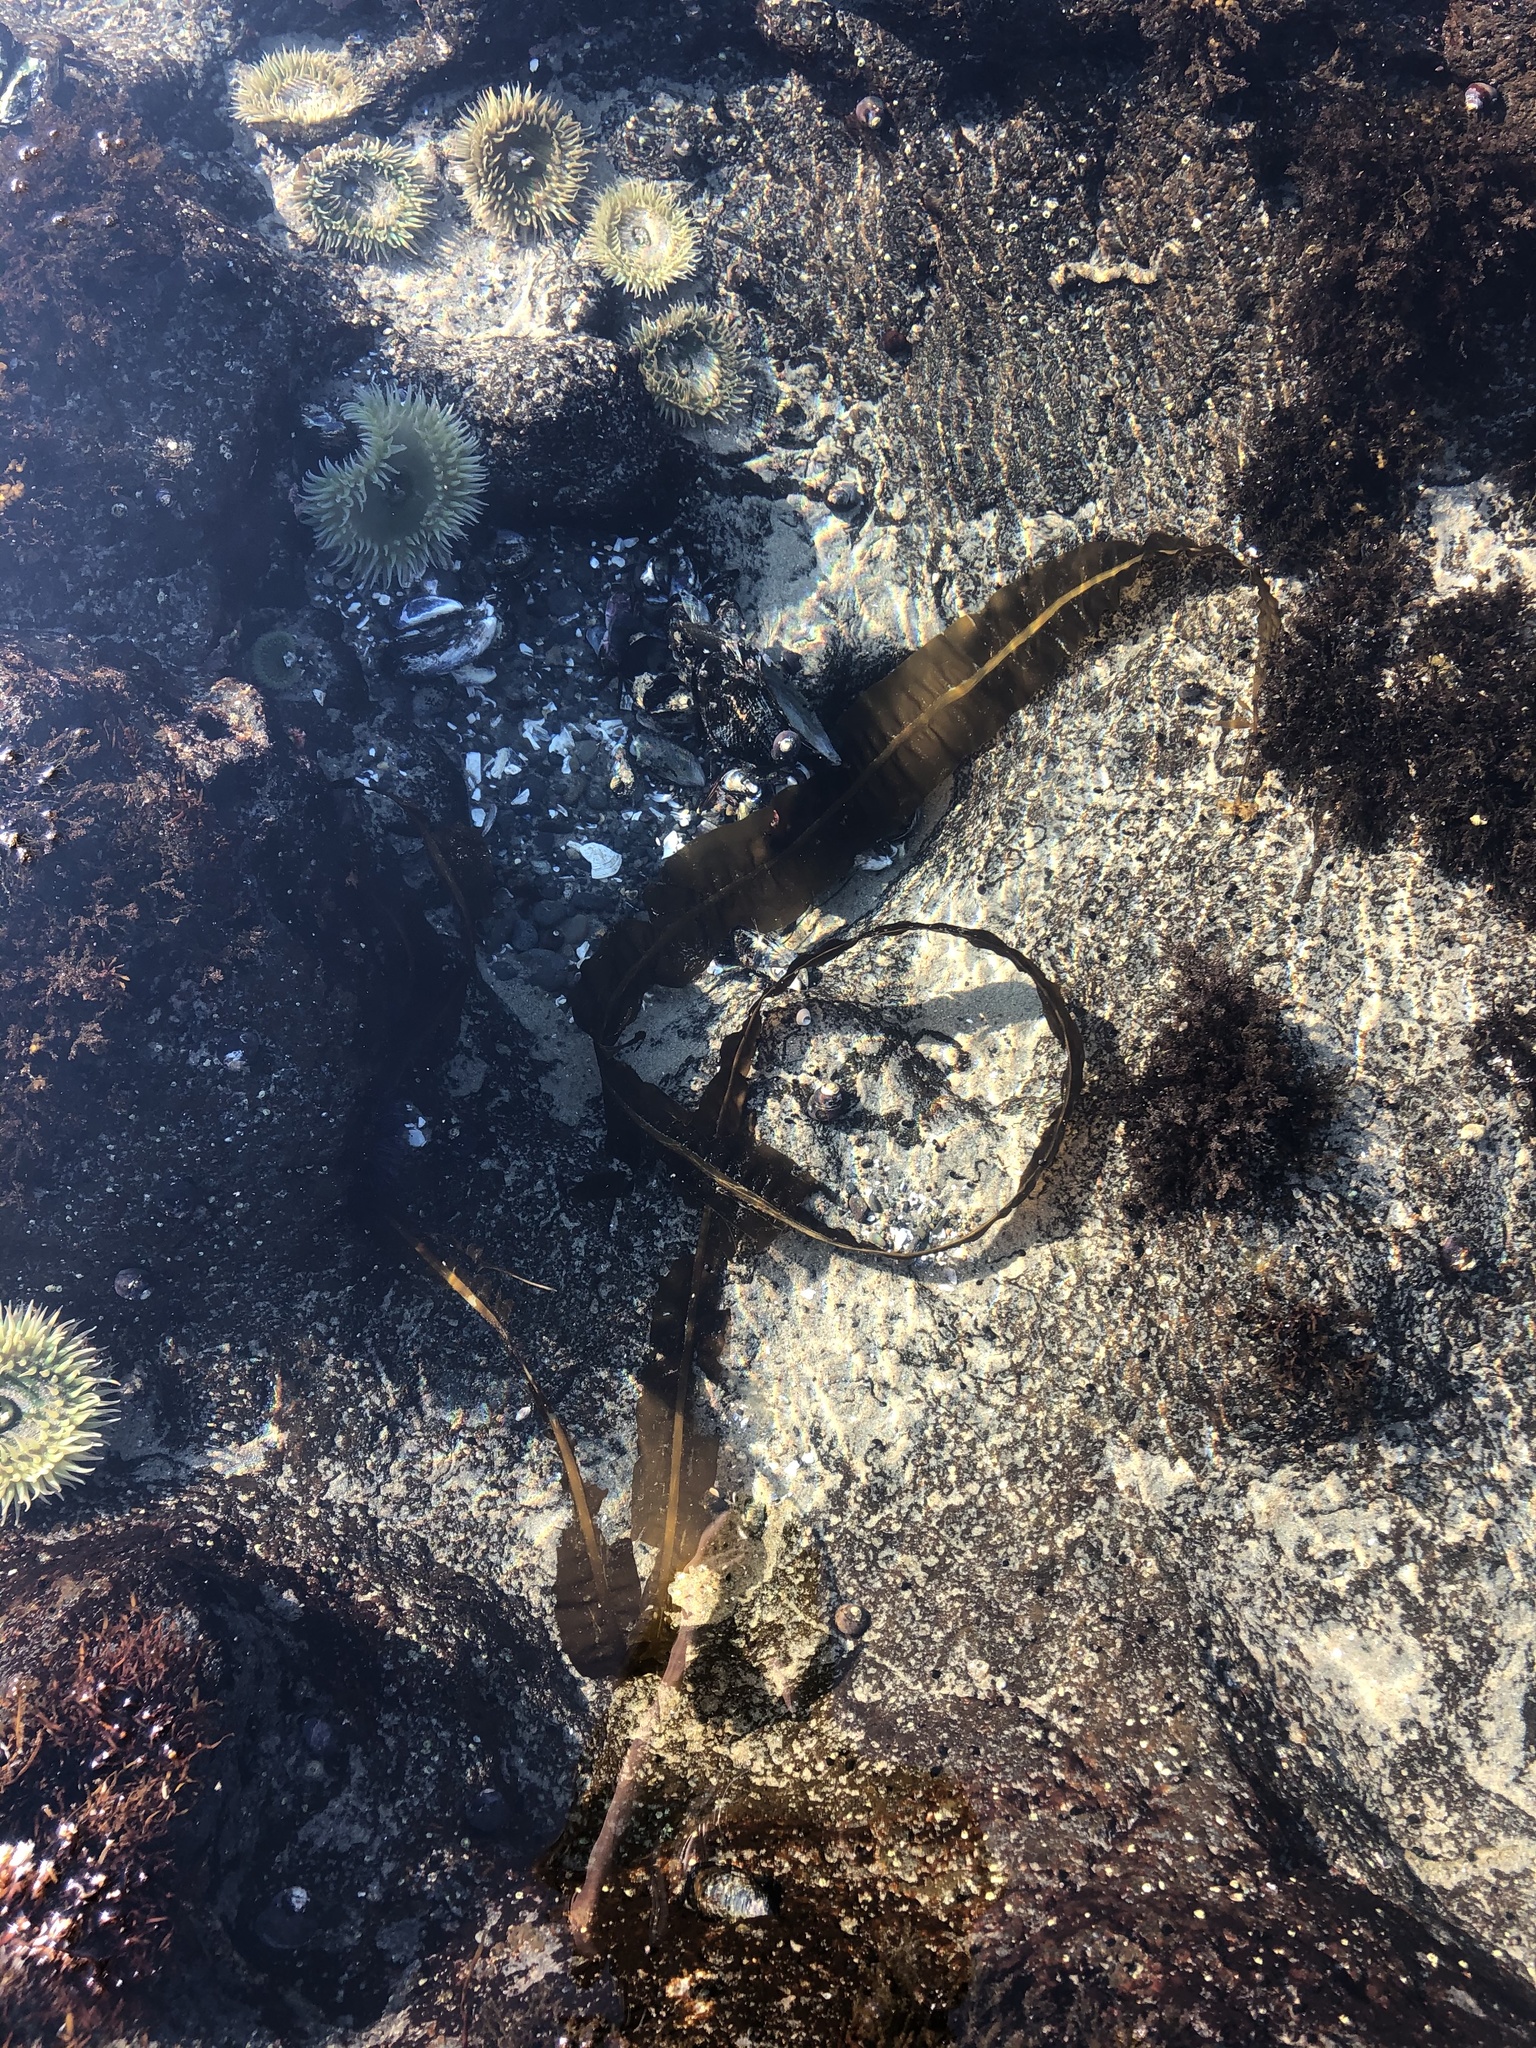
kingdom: Chromista
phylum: Ochrophyta
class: Phaeophyceae
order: Laminariales
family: Alariaceae
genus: Alaria
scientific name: Alaria marginata
